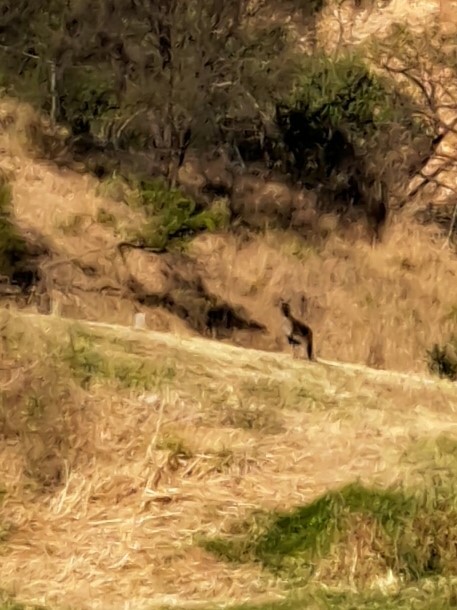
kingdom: Animalia
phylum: Chordata
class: Mammalia
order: Diprotodontia
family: Macropodidae
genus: Macropus
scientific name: Macropus fuliginosus
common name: Western grey kangaroo
